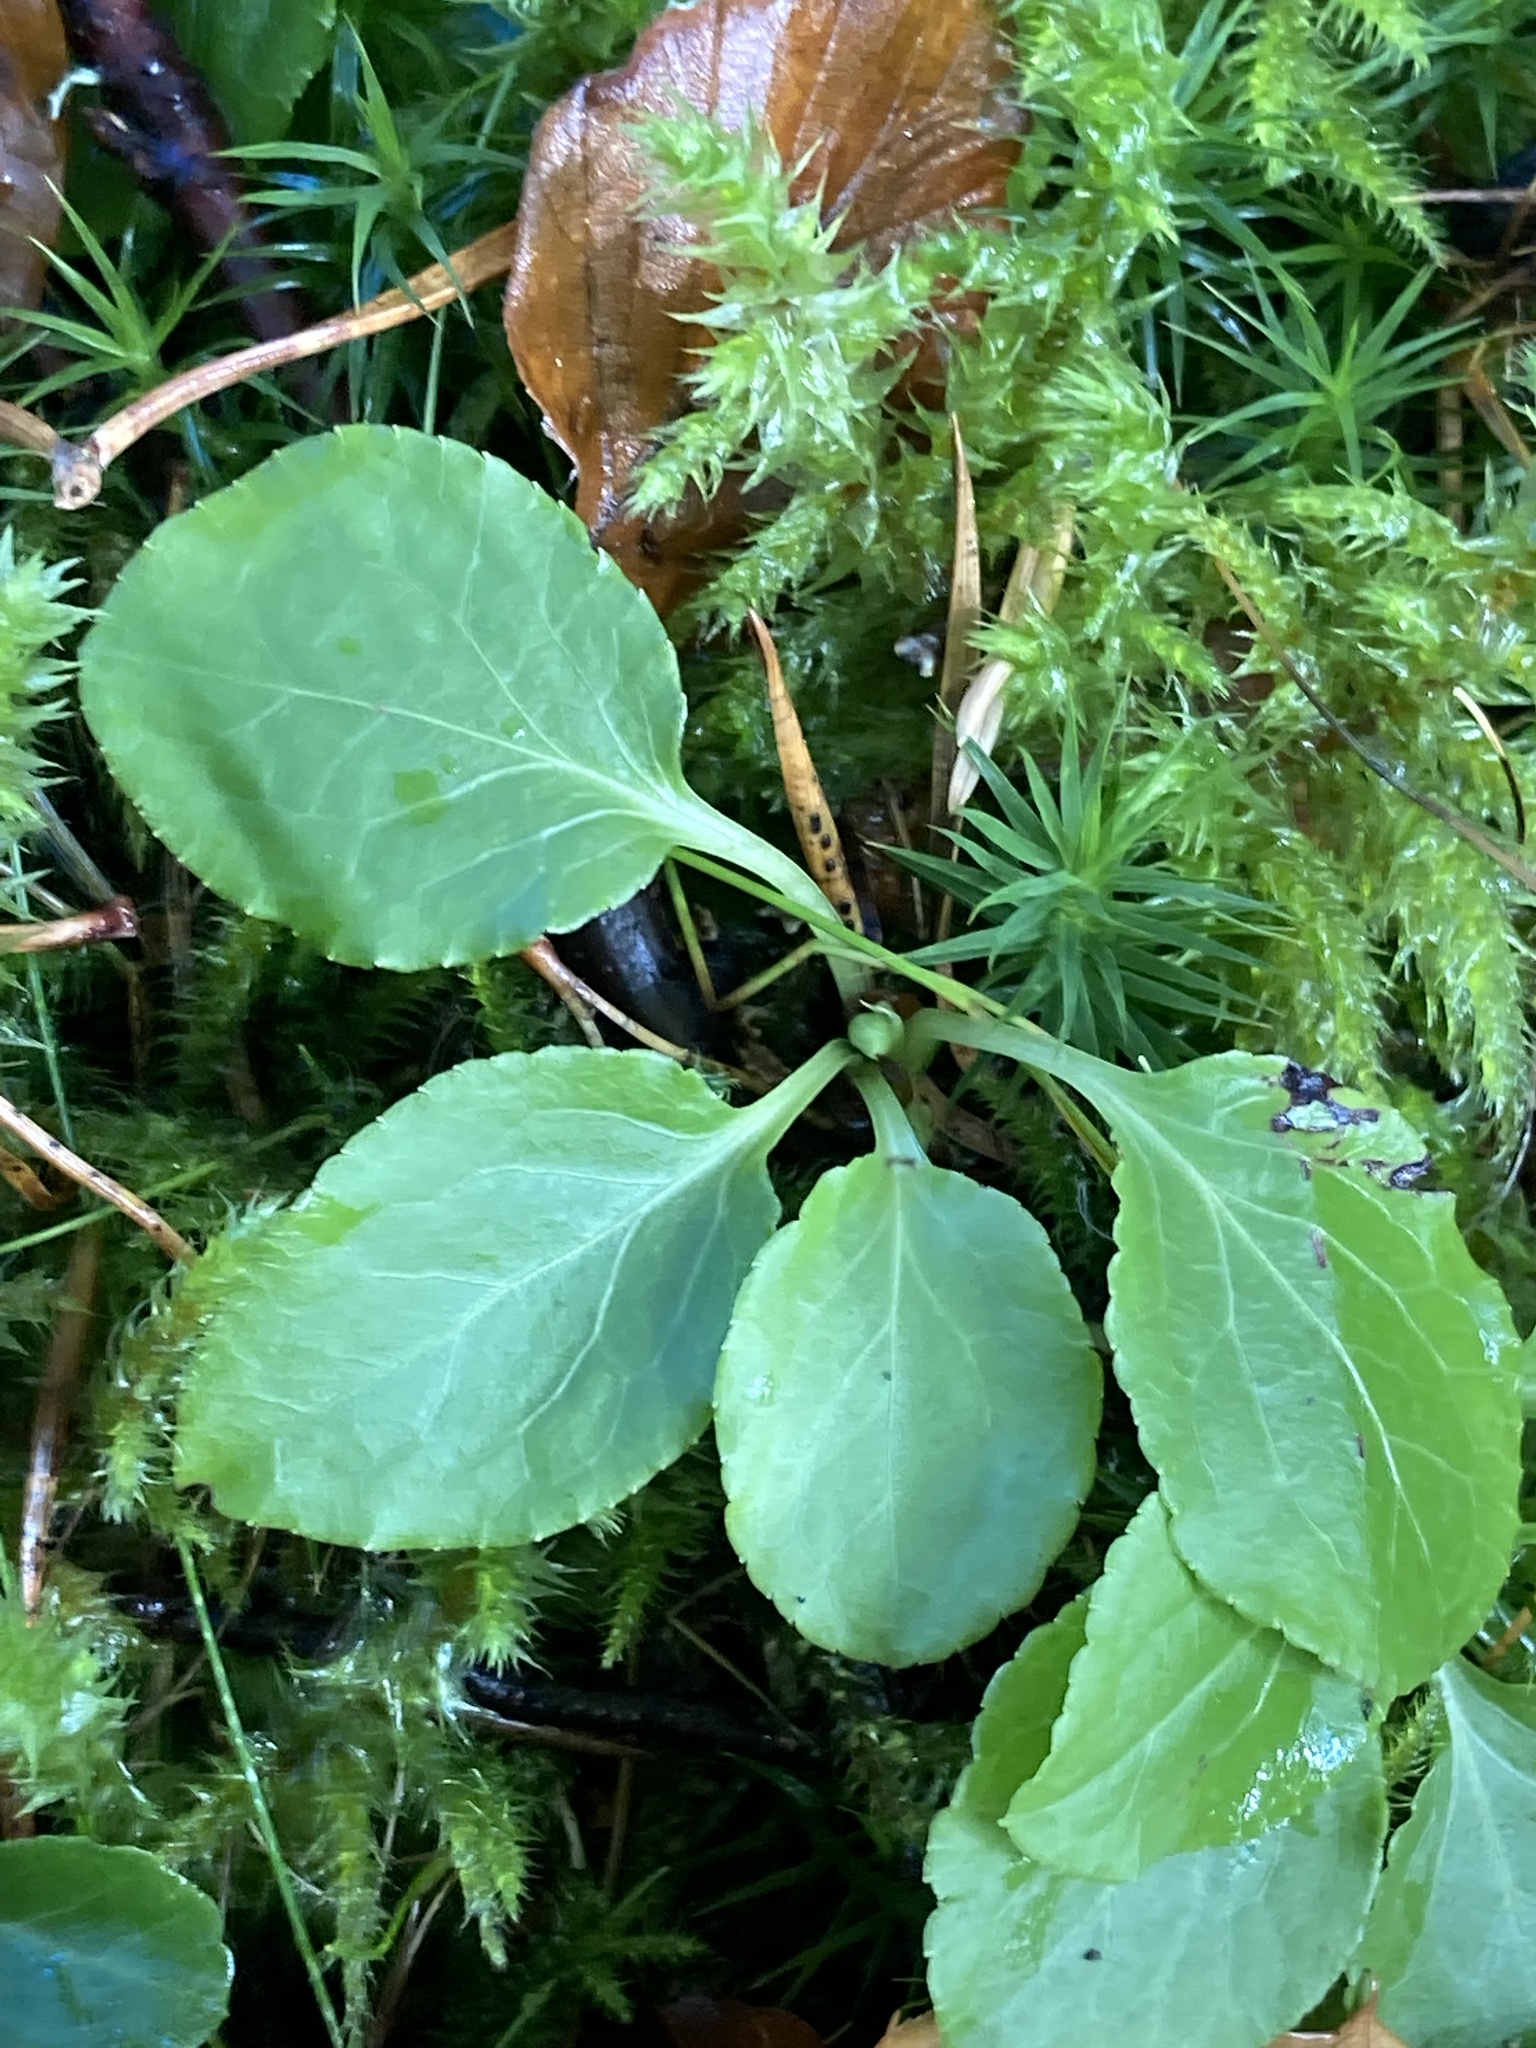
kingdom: Plantae
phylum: Tracheophyta
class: Magnoliopsida
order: Ericales
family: Ericaceae
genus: Pyrola
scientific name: Pyrola minor
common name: Common wintergreen
